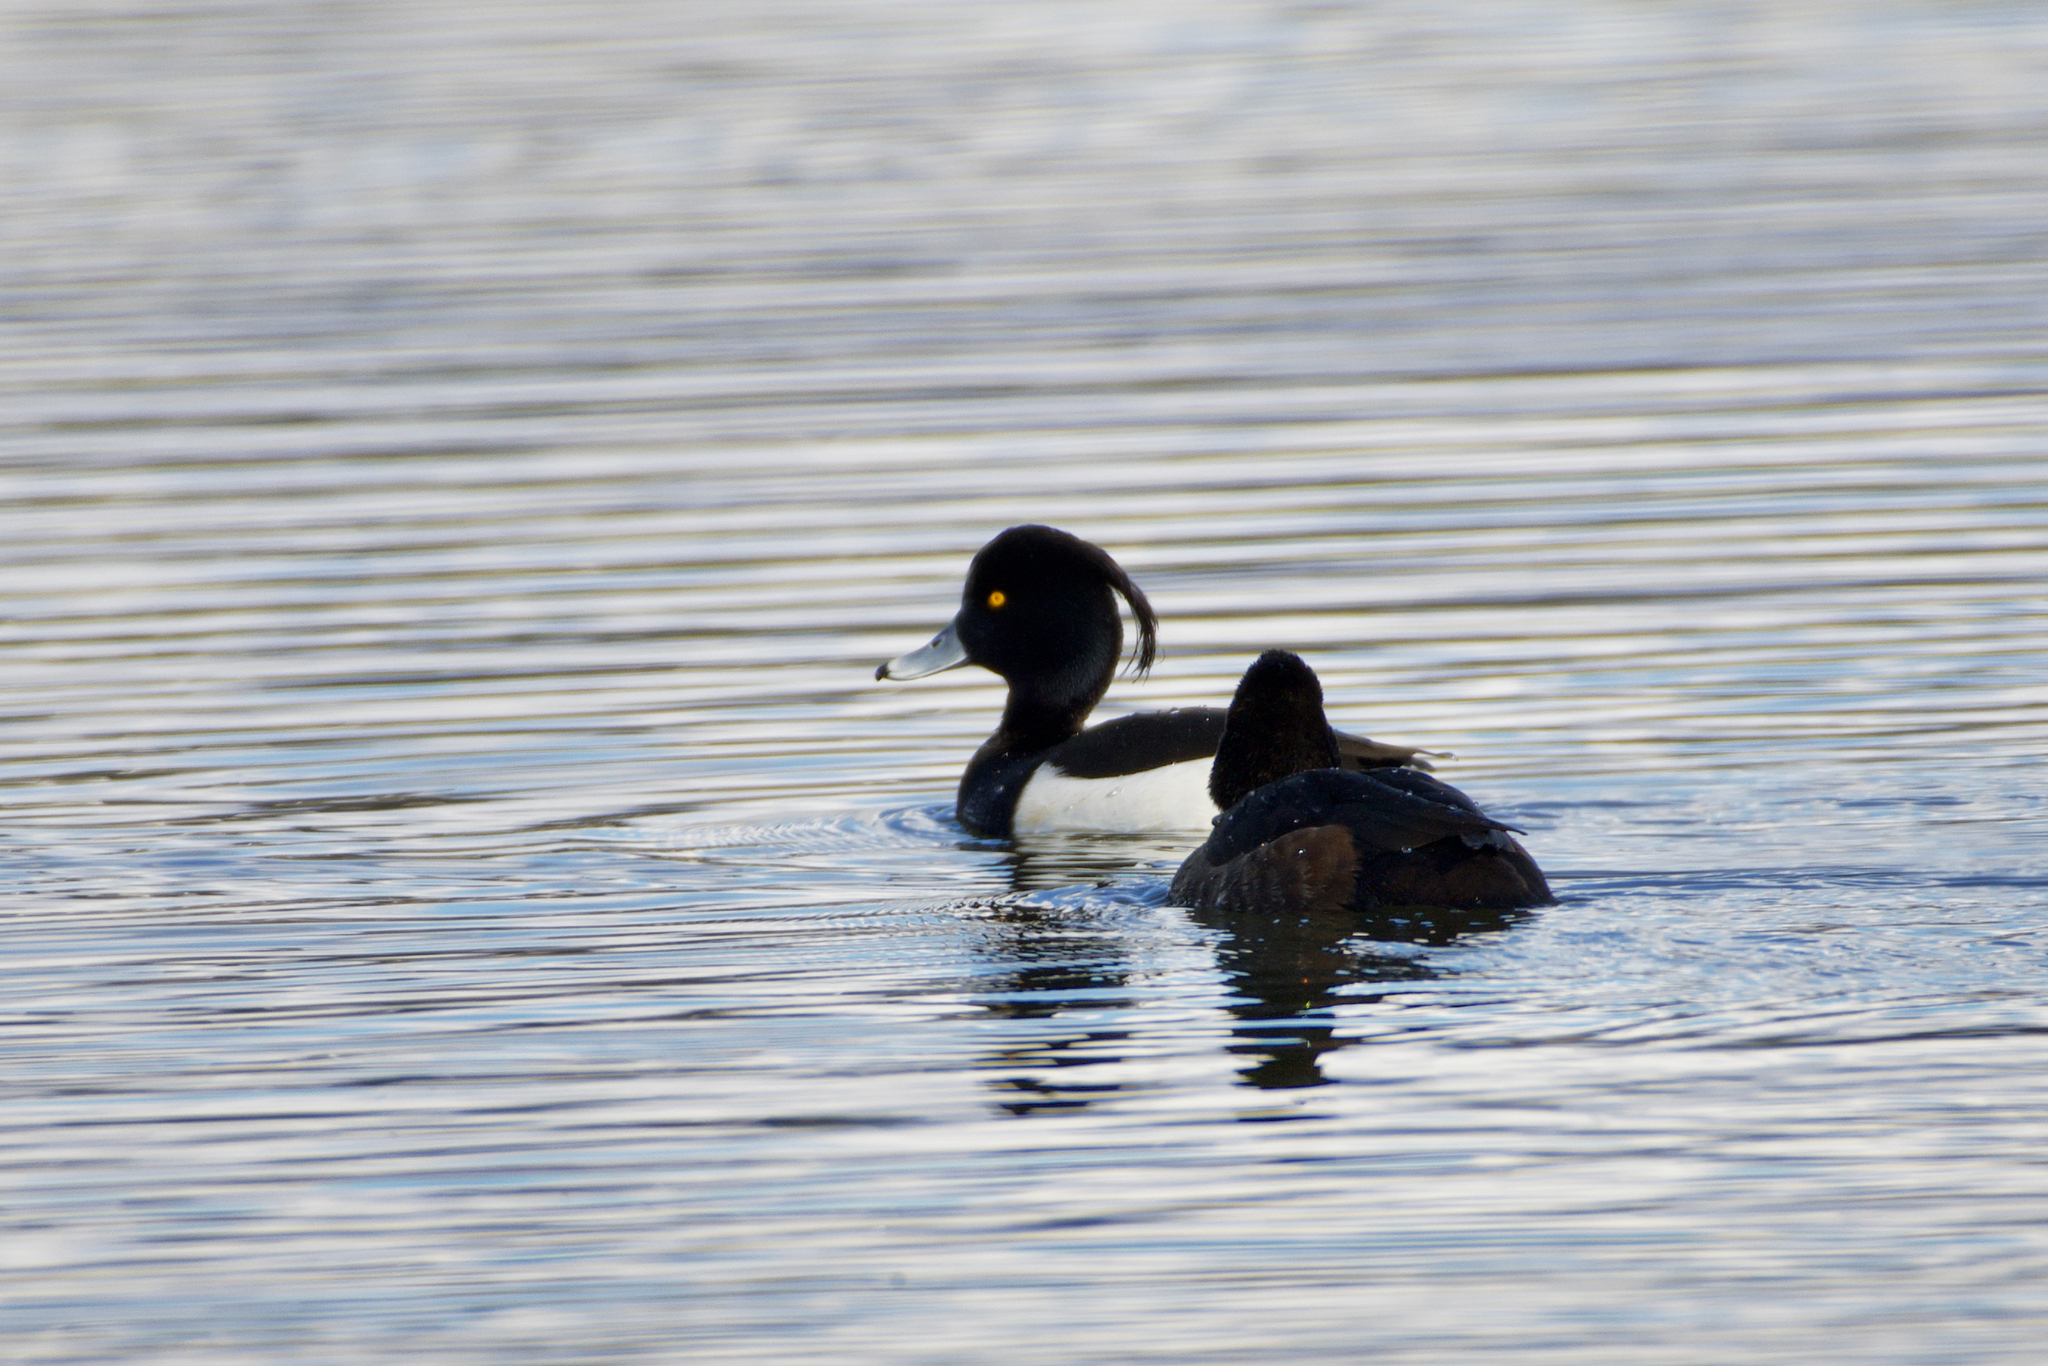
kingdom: Animalia
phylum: Chordata
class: Aves
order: Anseriformes
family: Anatidae
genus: Aythya
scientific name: Aythya fuligula
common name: Tufted duck
